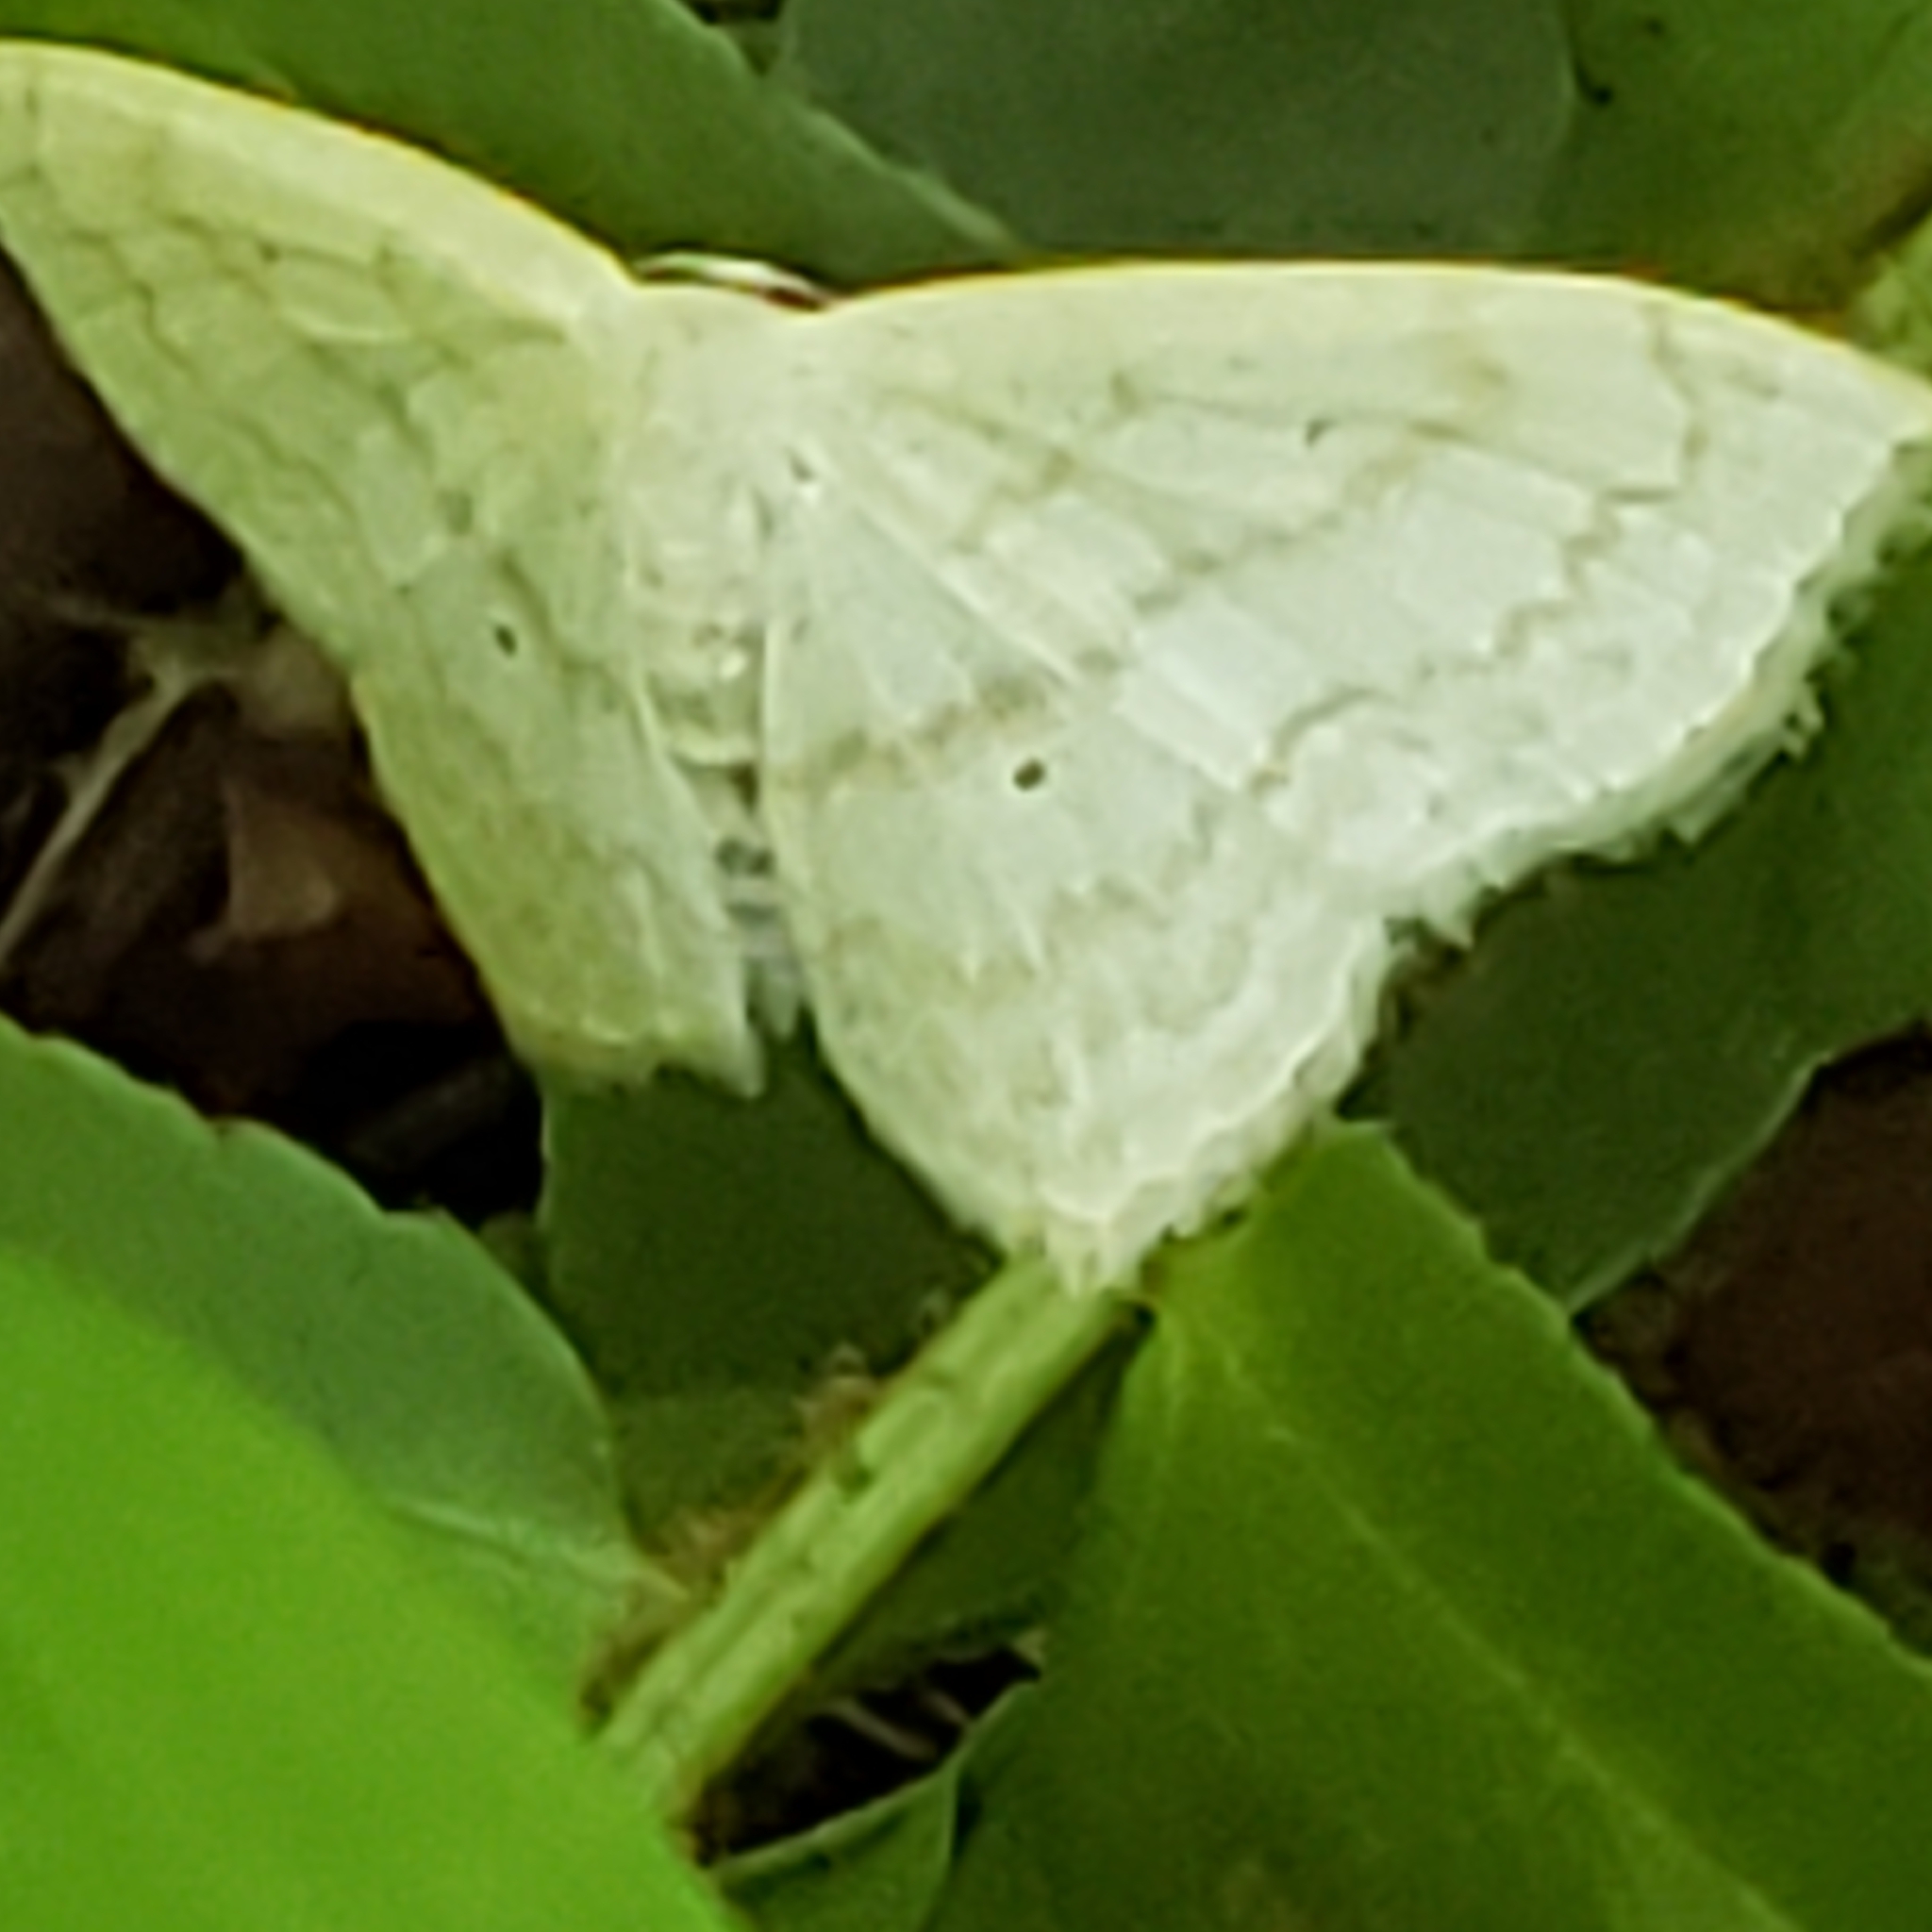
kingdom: Animalia
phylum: Arthropoda
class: Insecta
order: Lepidoptera
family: Geometridae
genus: Scopula
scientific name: Scopula limboundata
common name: Large lace border
